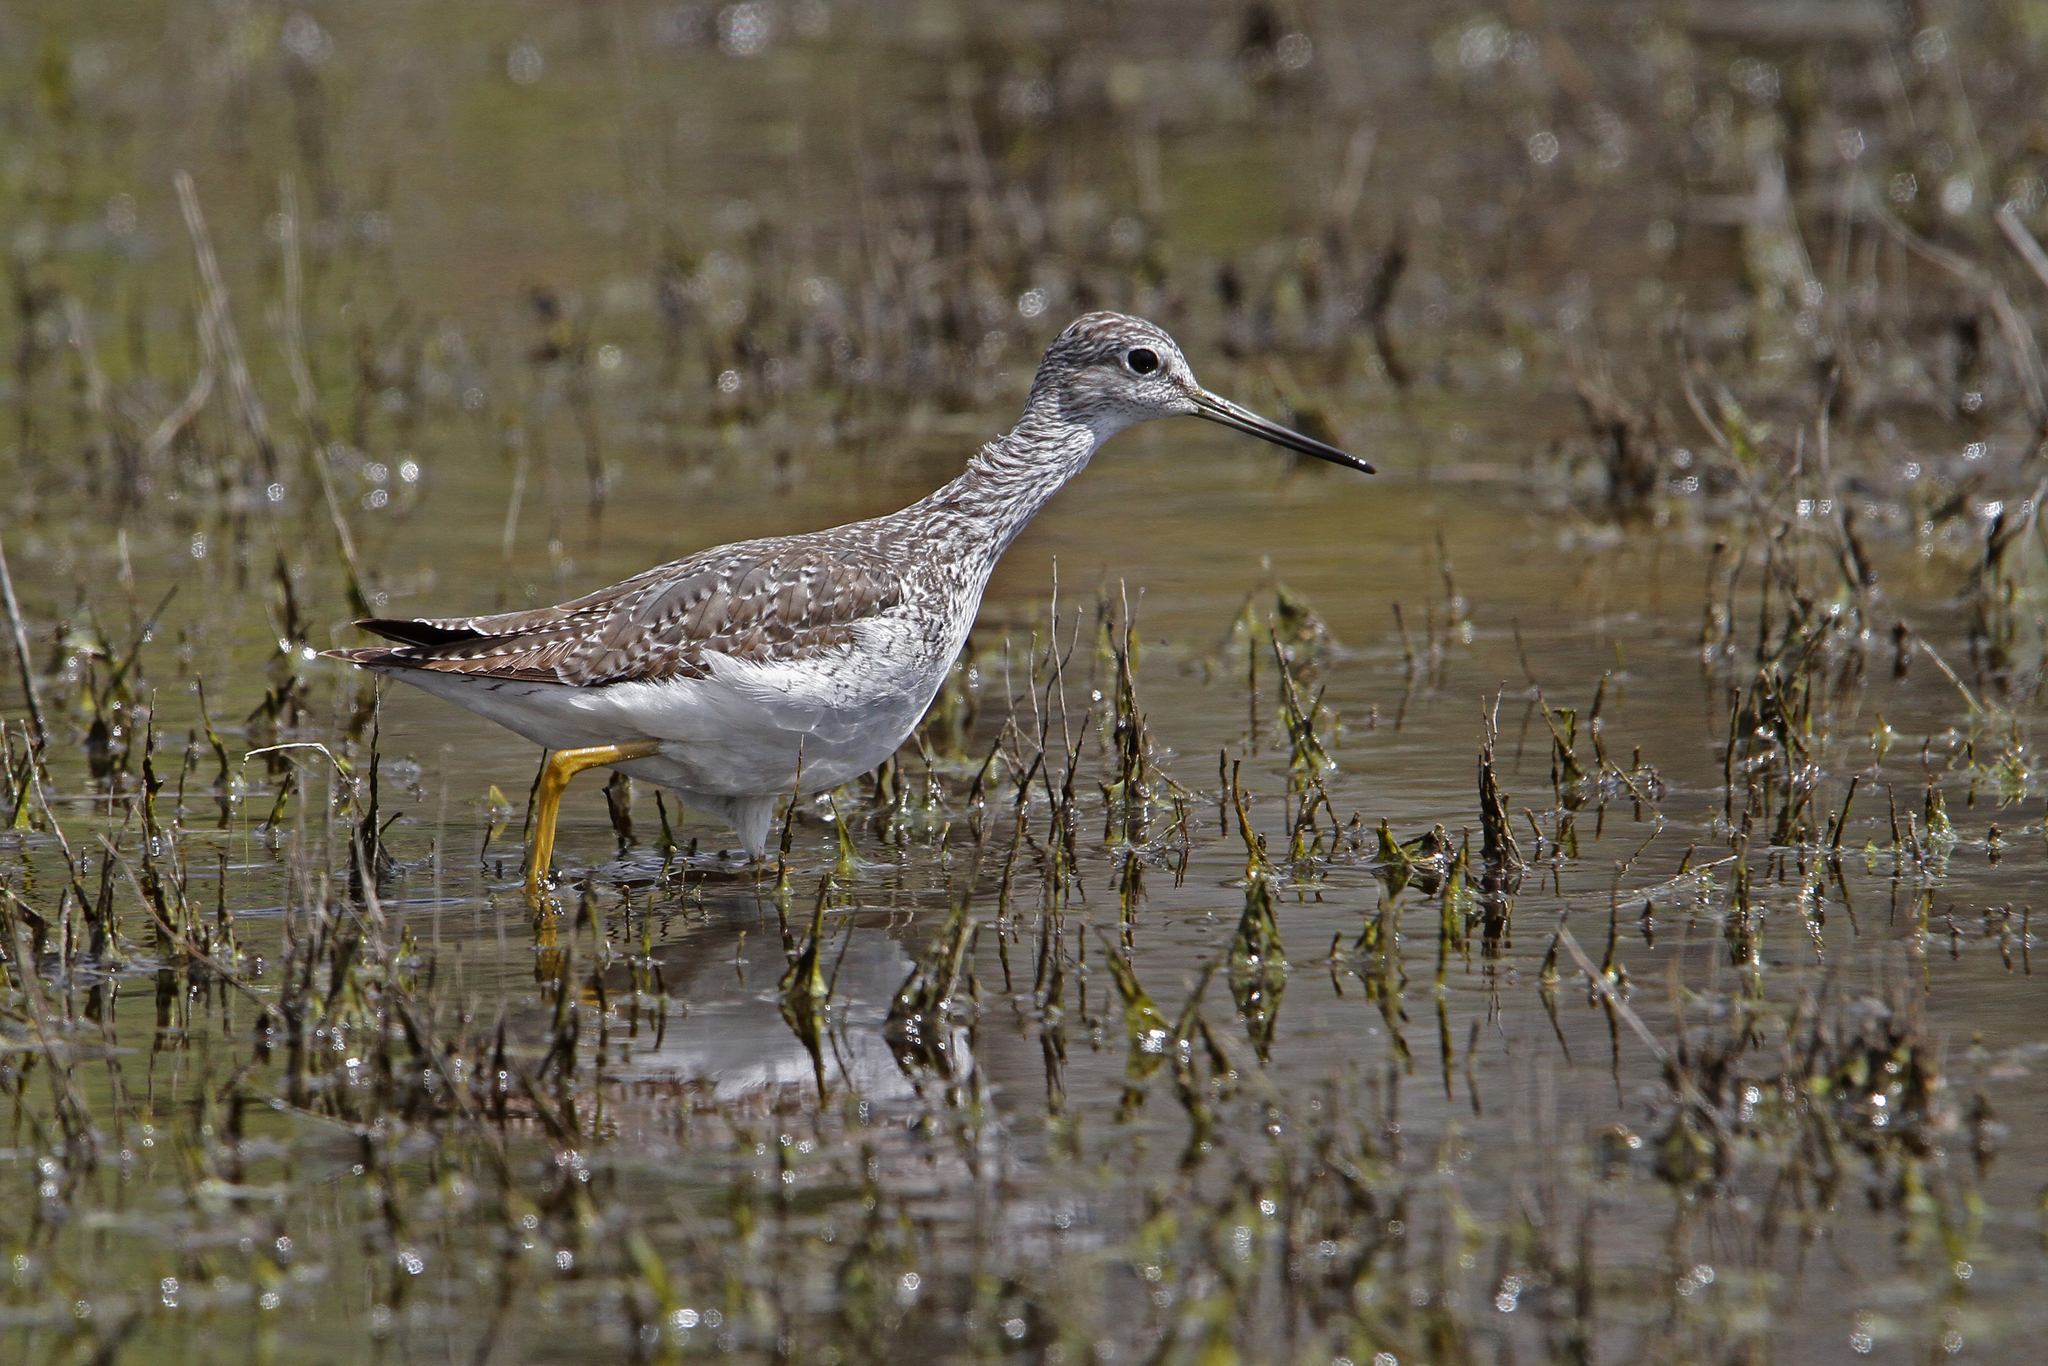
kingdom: Animalia
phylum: Chordata
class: Aves
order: Charadriiformes
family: Scolopacidae
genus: Tringa
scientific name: Tringa melanoleuca
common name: Greater yellowlegs
